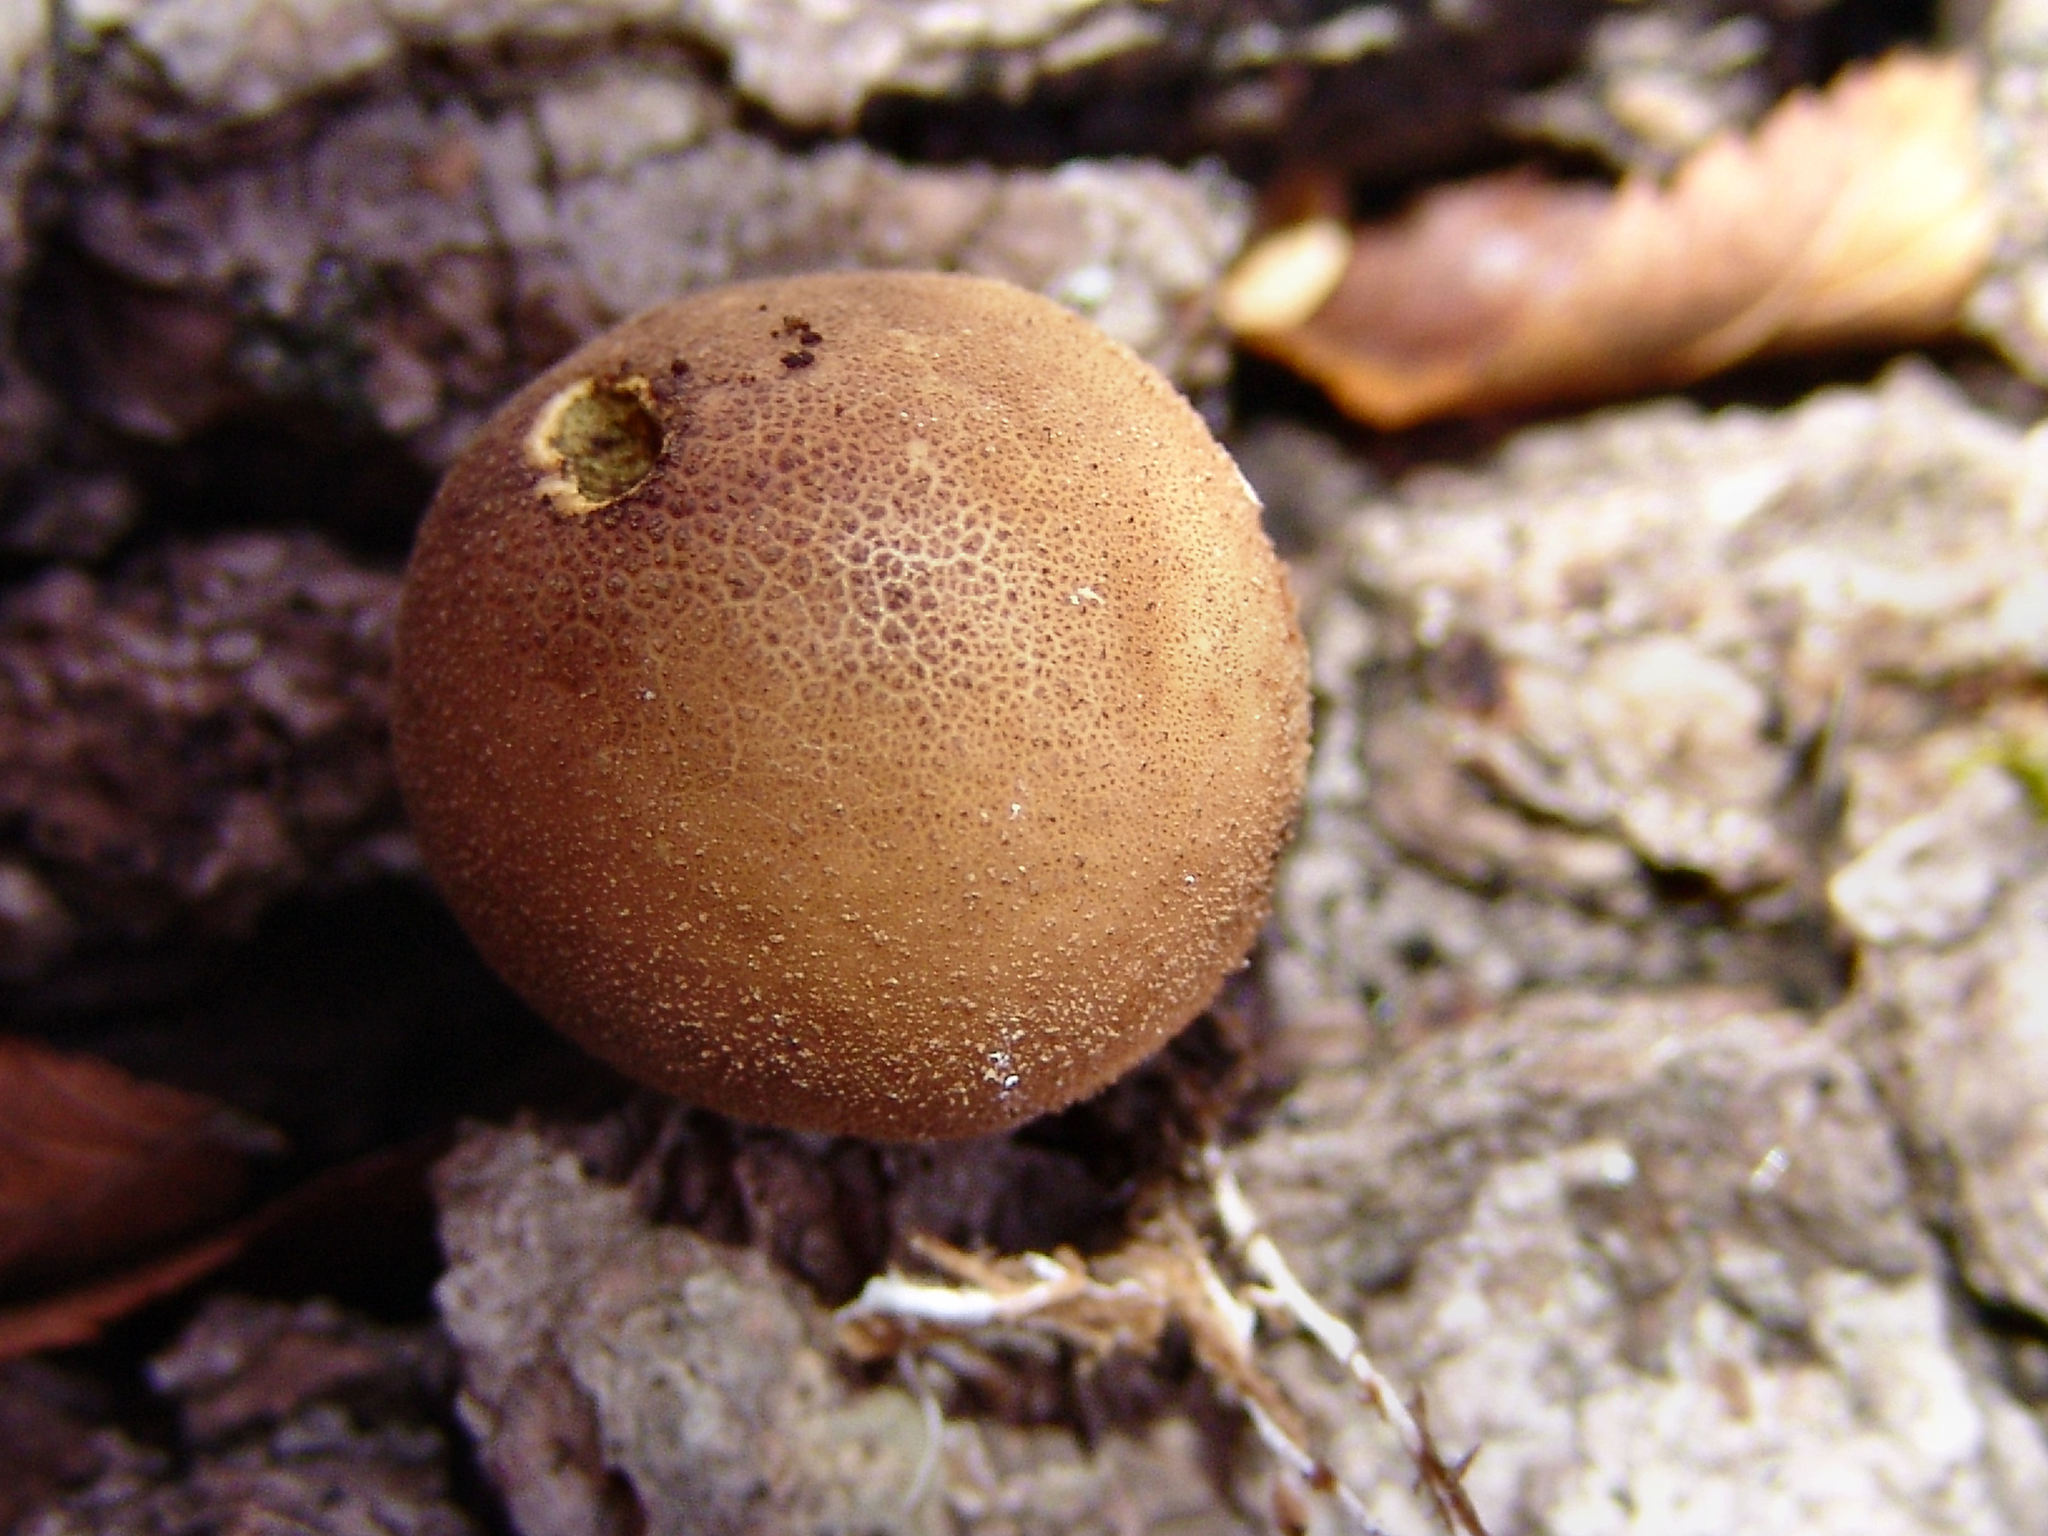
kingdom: Fungi
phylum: Basidiomycota
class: Agaricomycetes
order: Agaricales
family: Lycoperdaceae
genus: Apioperdon
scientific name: Apioperdon pyriforme
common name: Pear-shaped puffball
